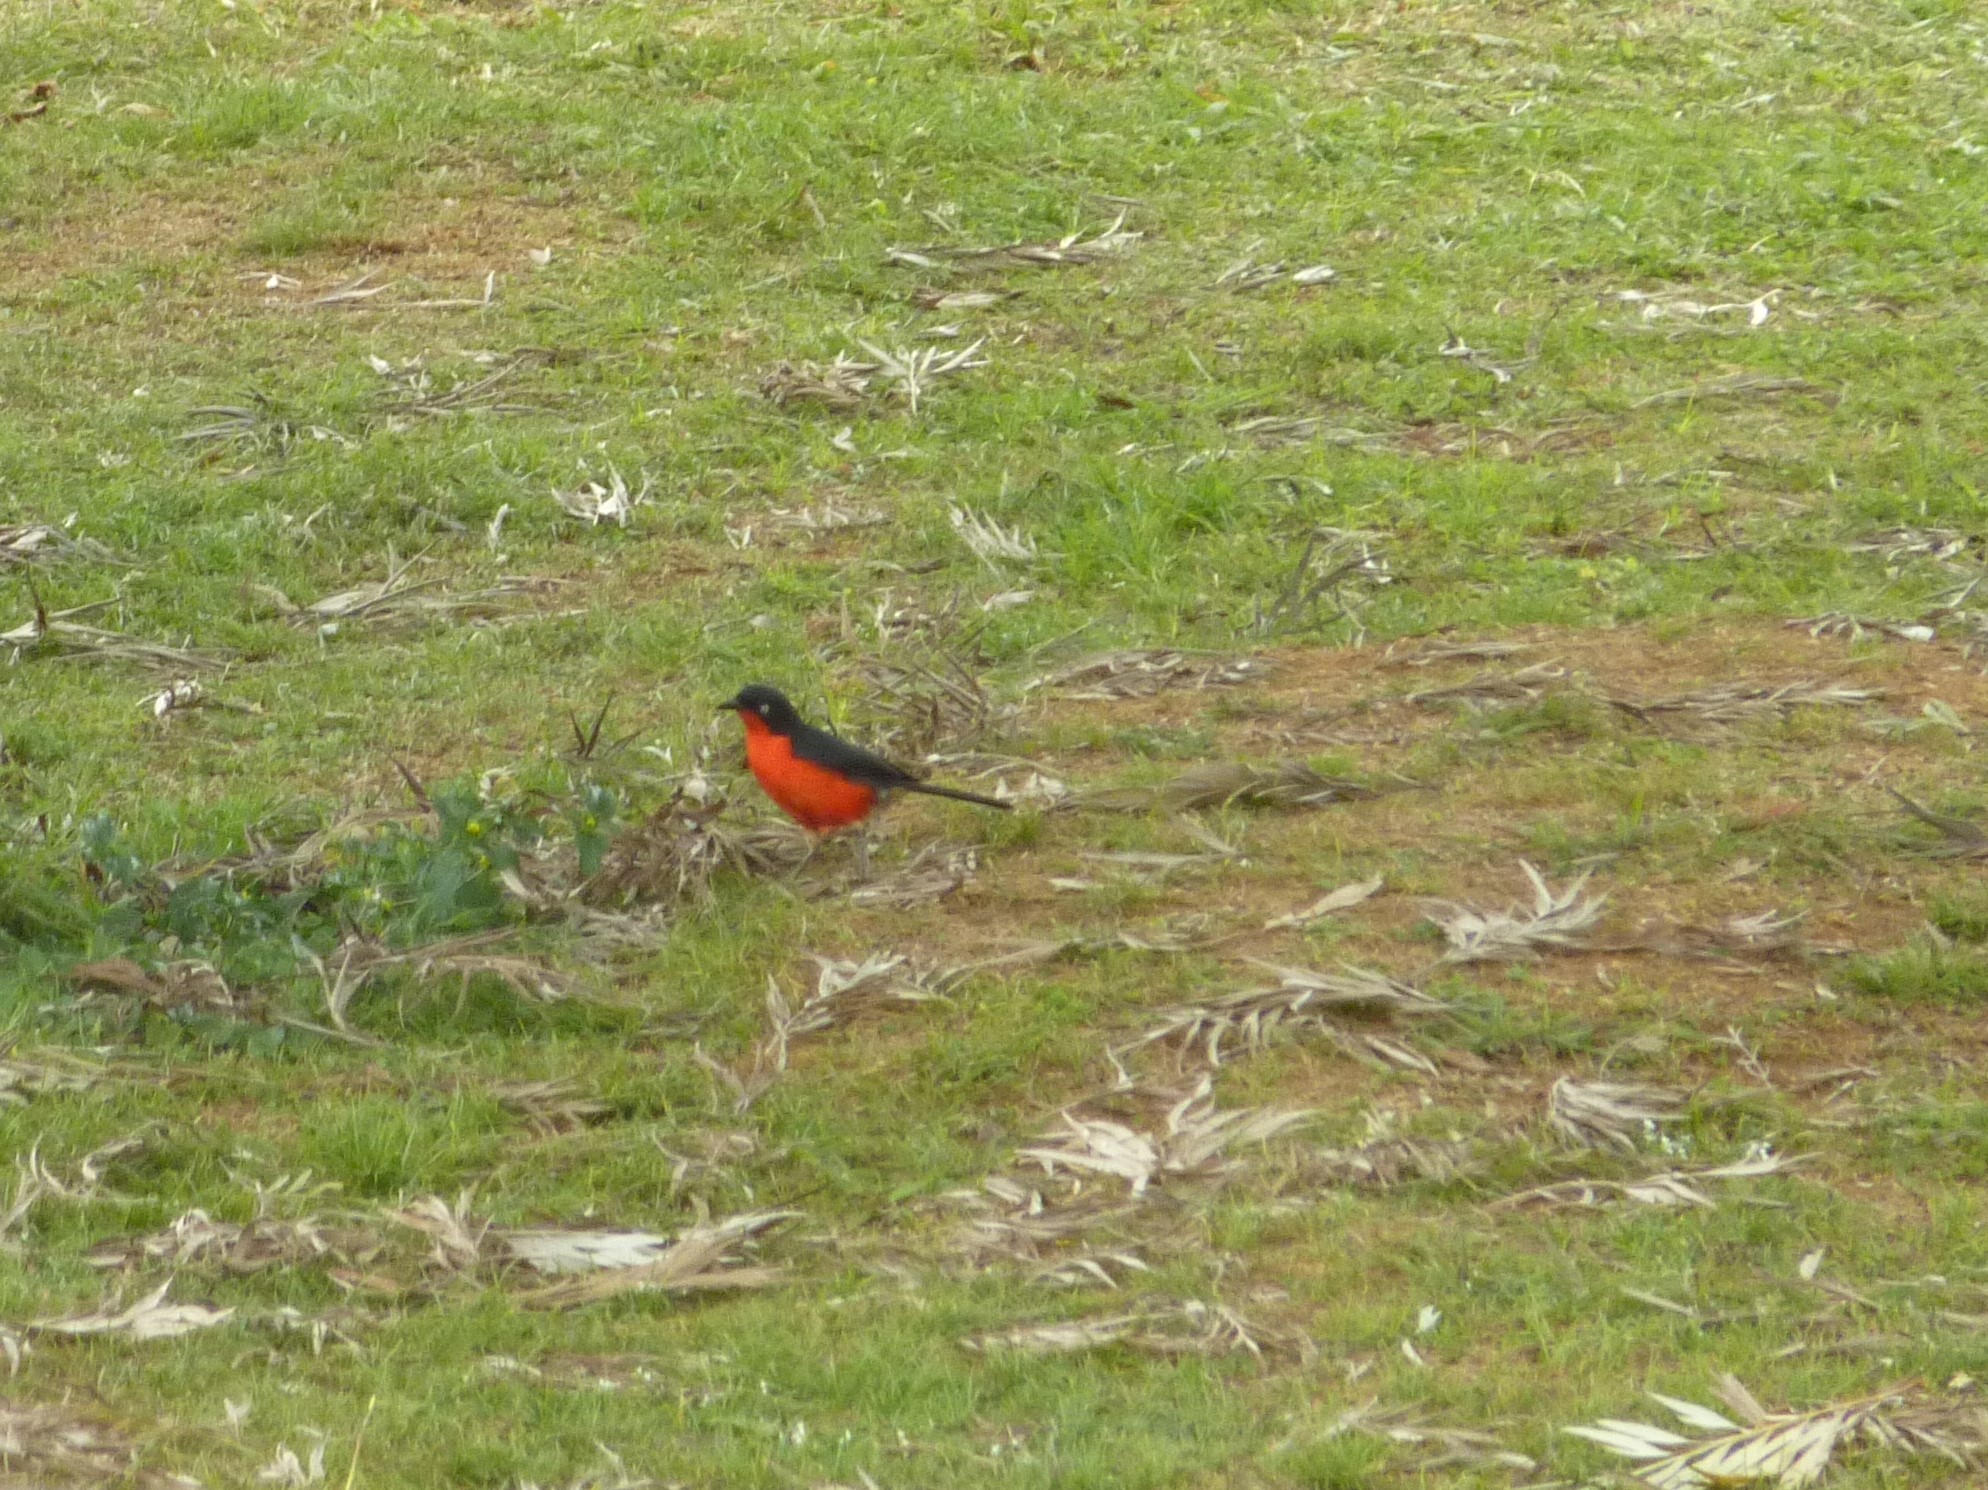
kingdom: Animalia
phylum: Chordata
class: Aves
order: Passeriformes
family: Malaconotidae
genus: Laniarius
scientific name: Laniarius erythrogaster
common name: Black-headed gonolek
